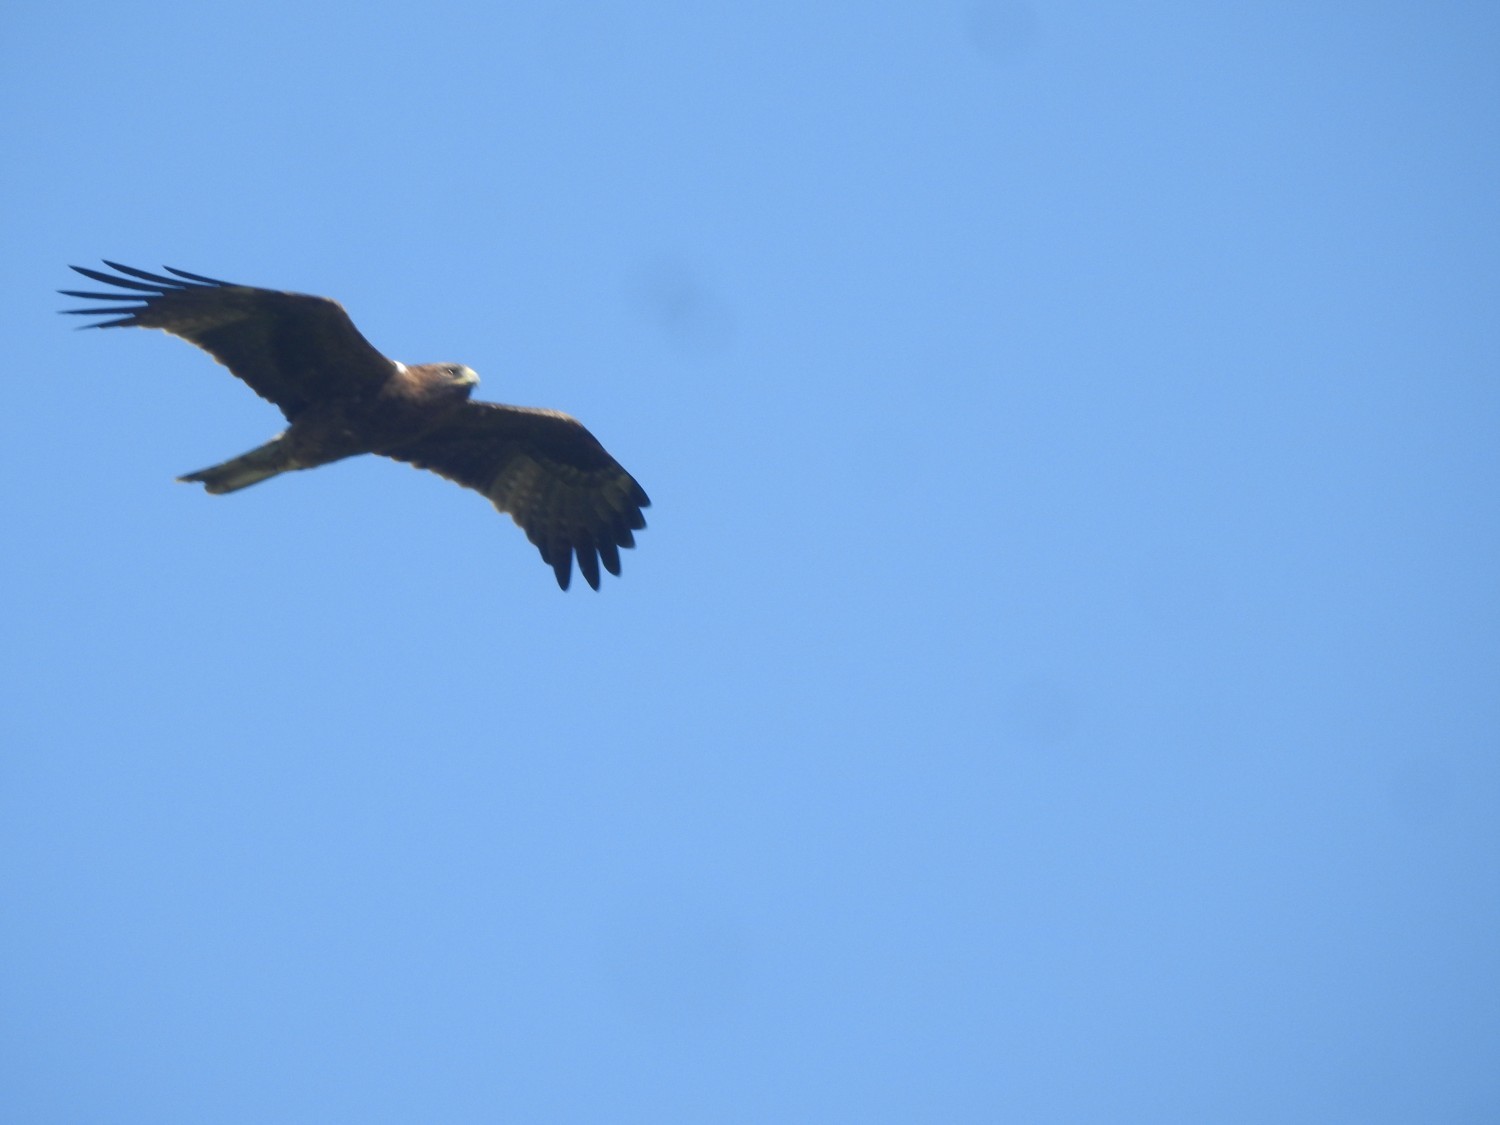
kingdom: Animalia
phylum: Chordata
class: Aves
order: Accipitriformes
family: Accipitridae
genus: Hieraaetus
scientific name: Hieraaetus pennatus
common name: Booted eagle
